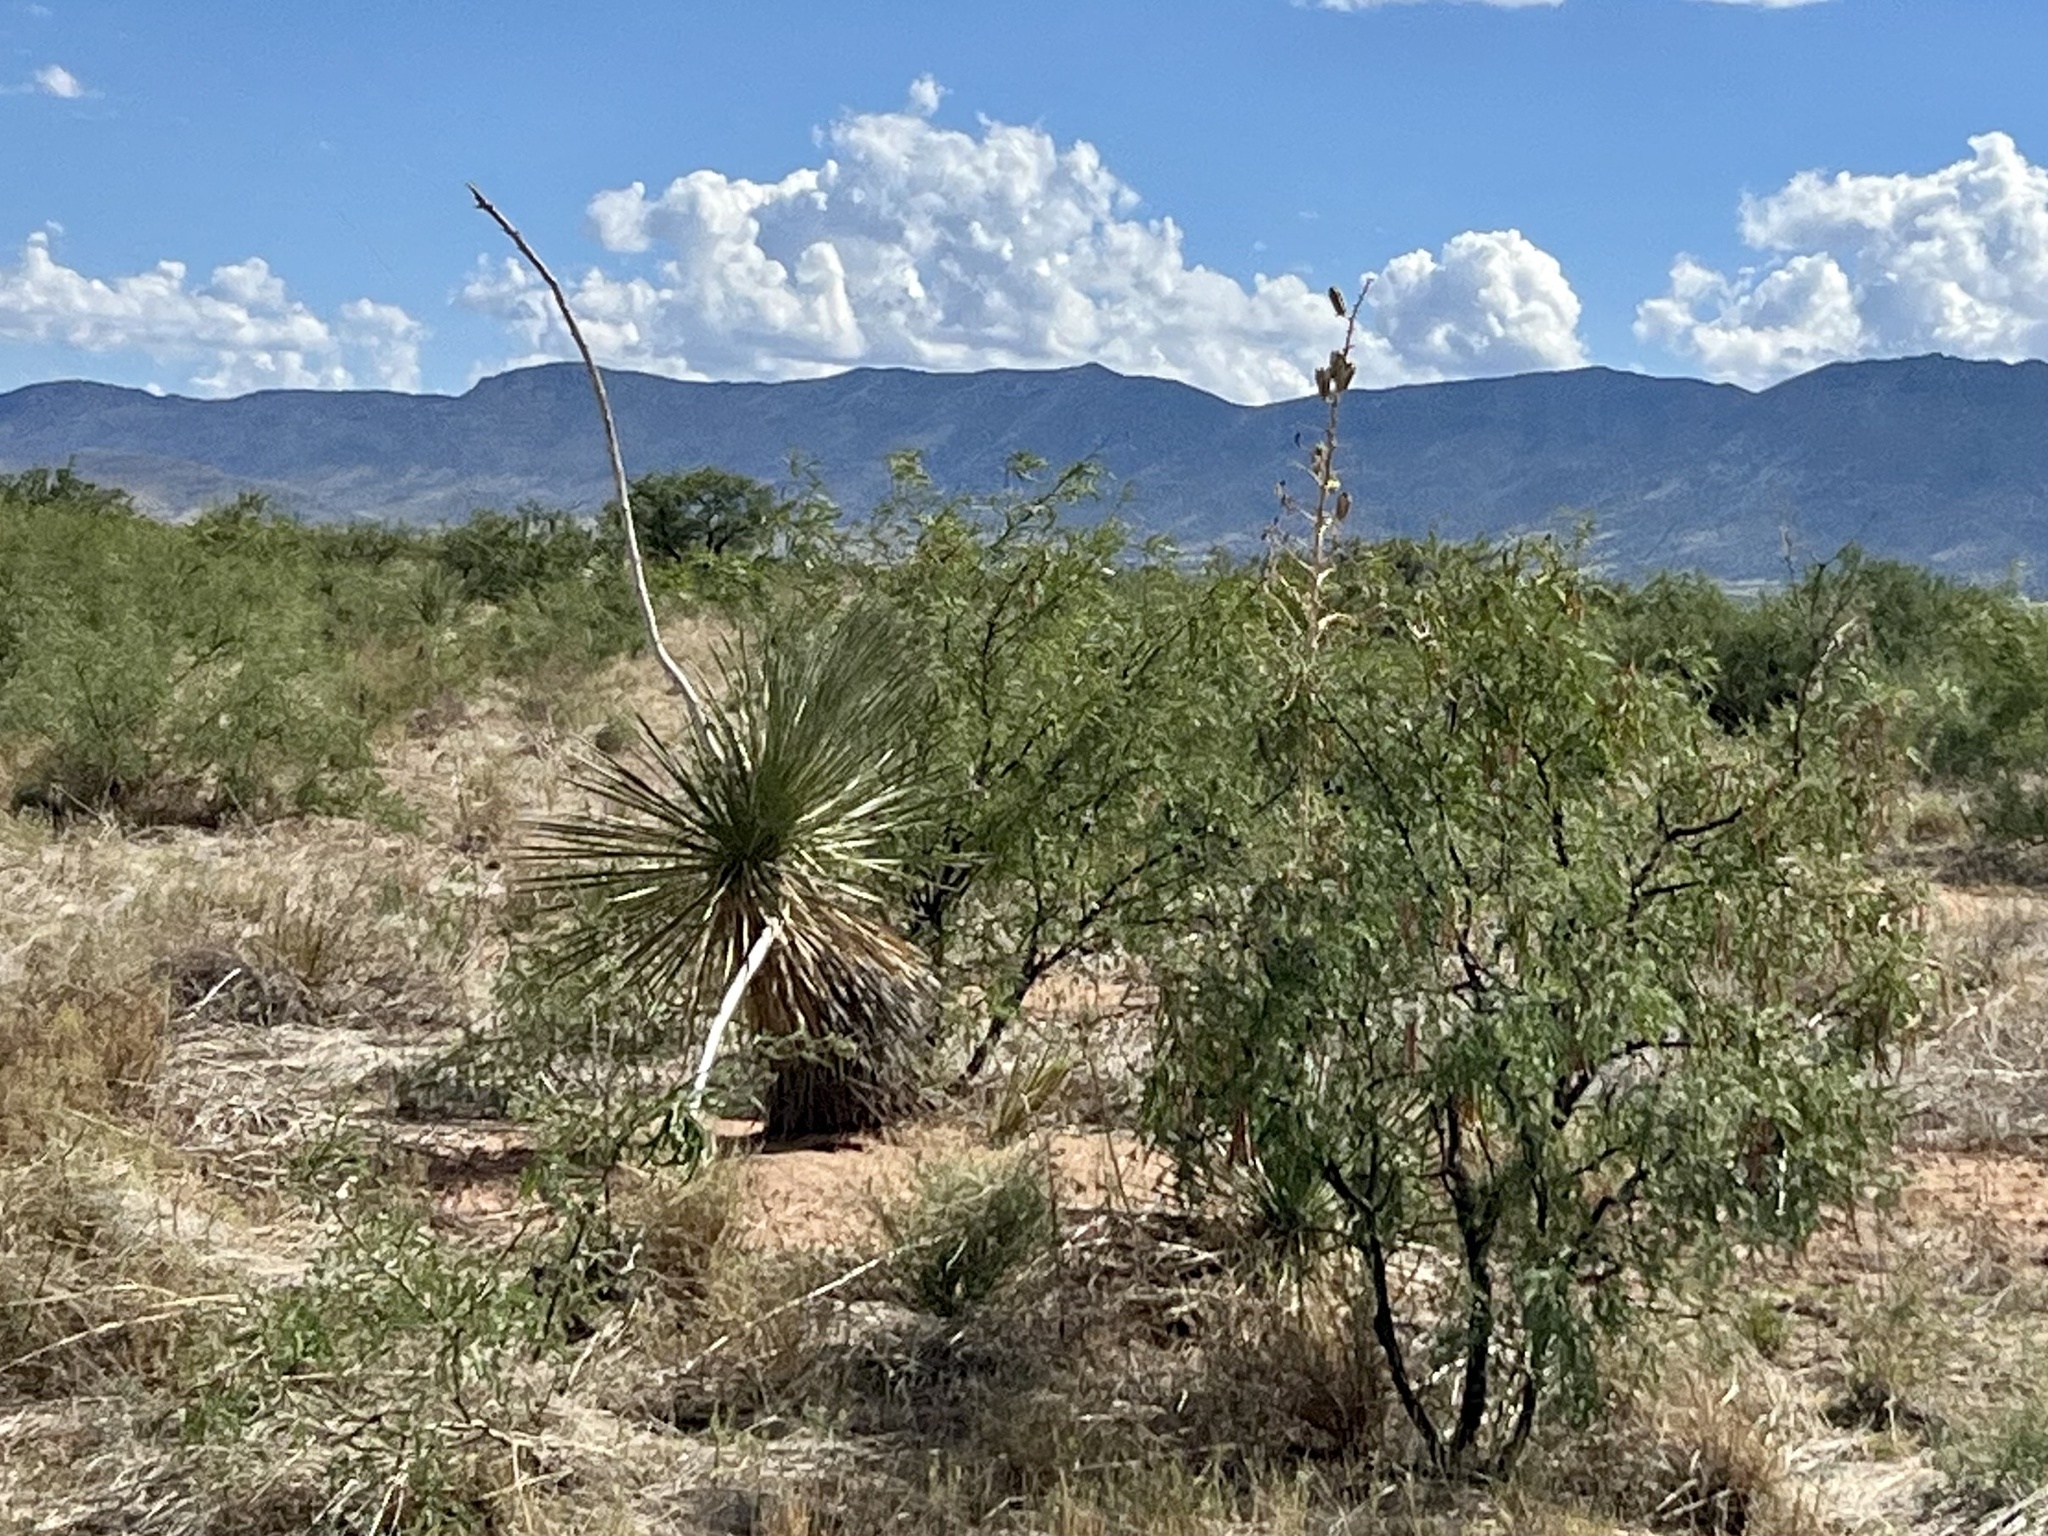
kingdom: Plantae
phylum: Tracheophyta
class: Liliopsida
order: Asparagales
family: Asparagaceae
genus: Yucca
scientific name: Yucca elata
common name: Palmella
